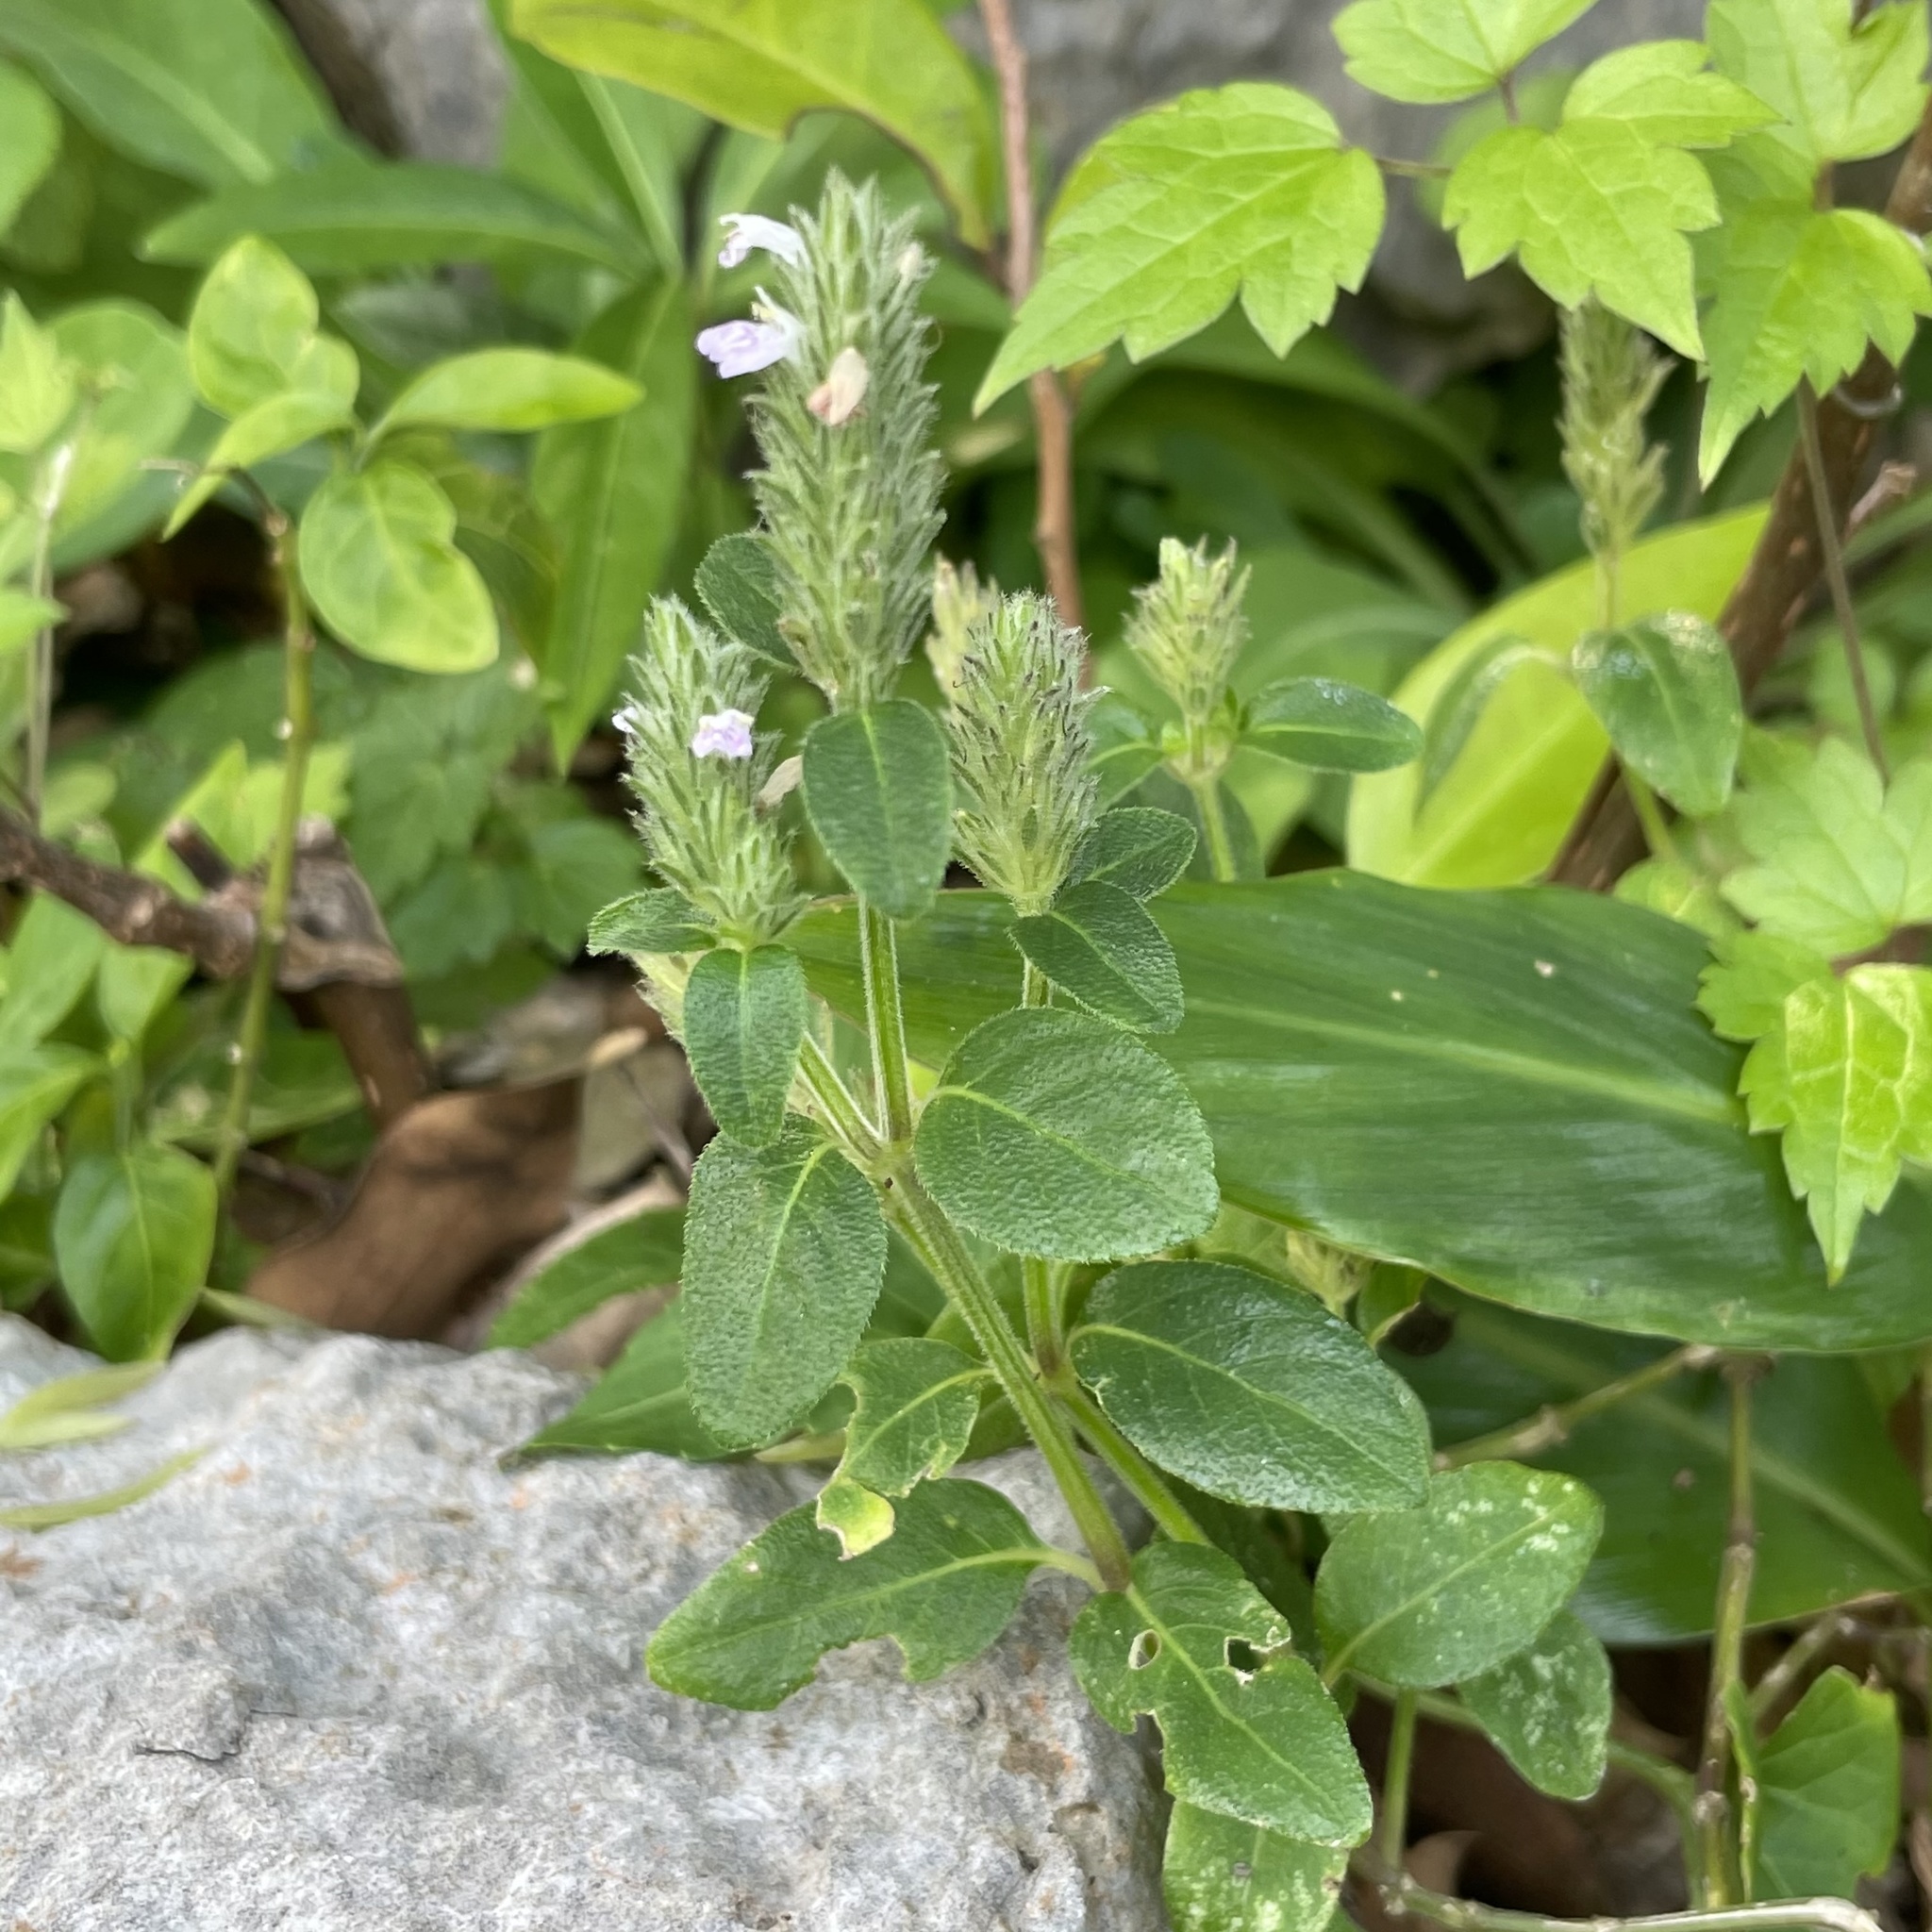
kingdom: Plantae
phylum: Tracheophyta
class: Magnoliopsida
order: Lamiales
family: Acanthaceae
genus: Rostellularia
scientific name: Rostellularia procumbens
